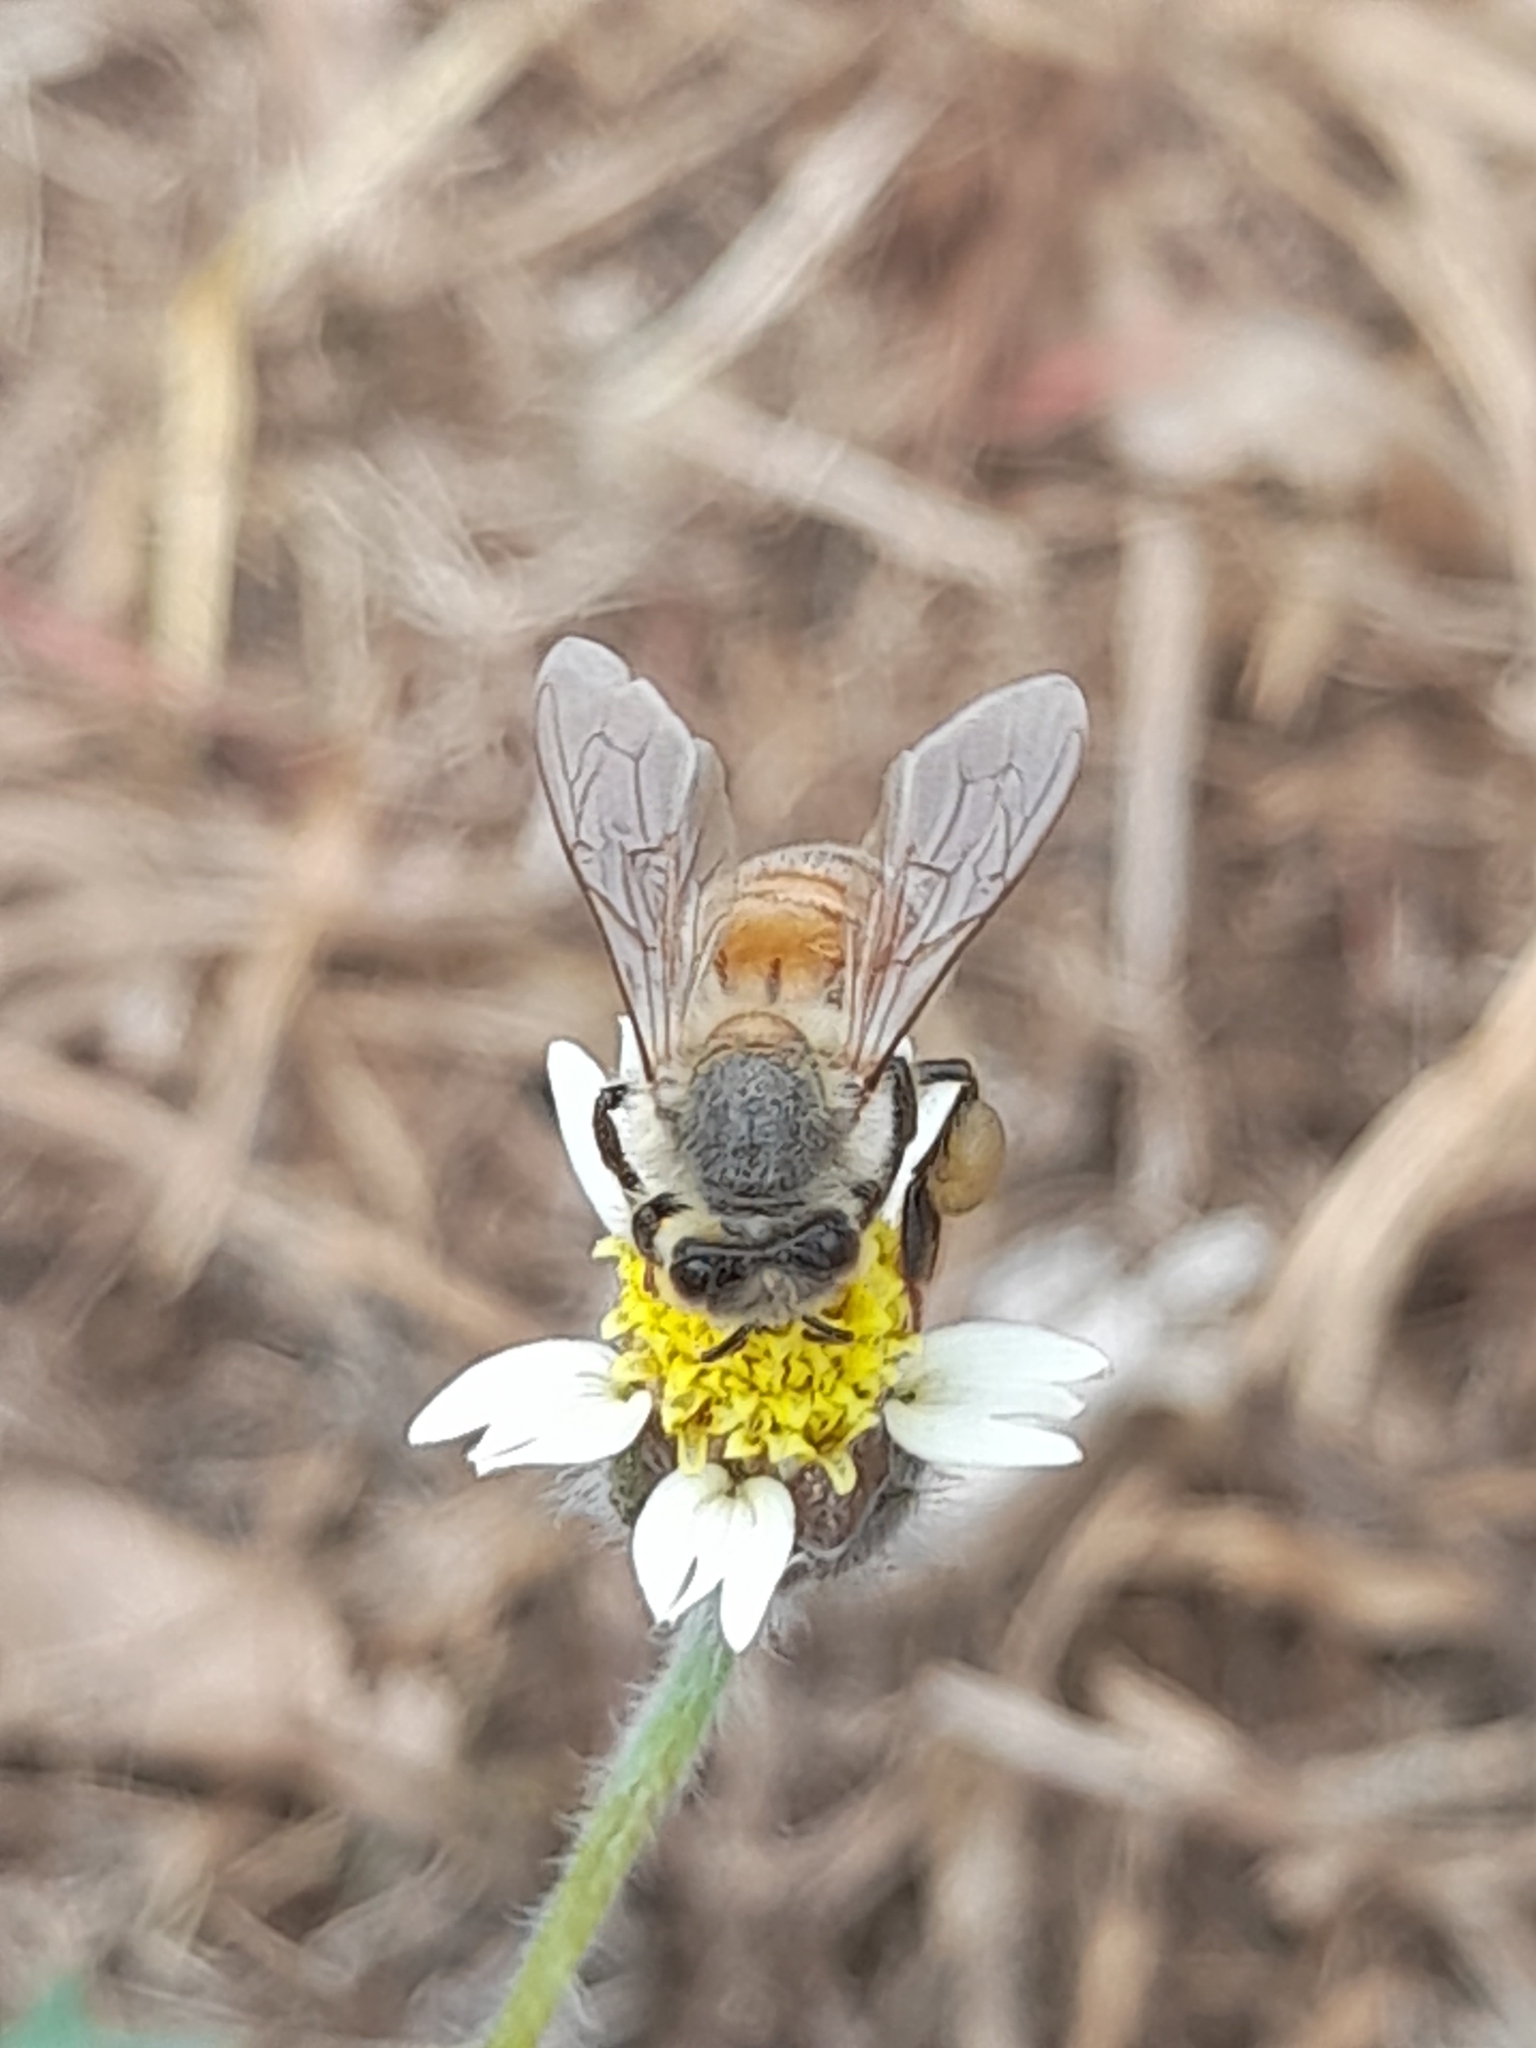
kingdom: Animalia
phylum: Arthropoda
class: Insecta
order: Hymenoptera
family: Apidae
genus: Apis
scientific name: Apis mellifera
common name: Honey bee
